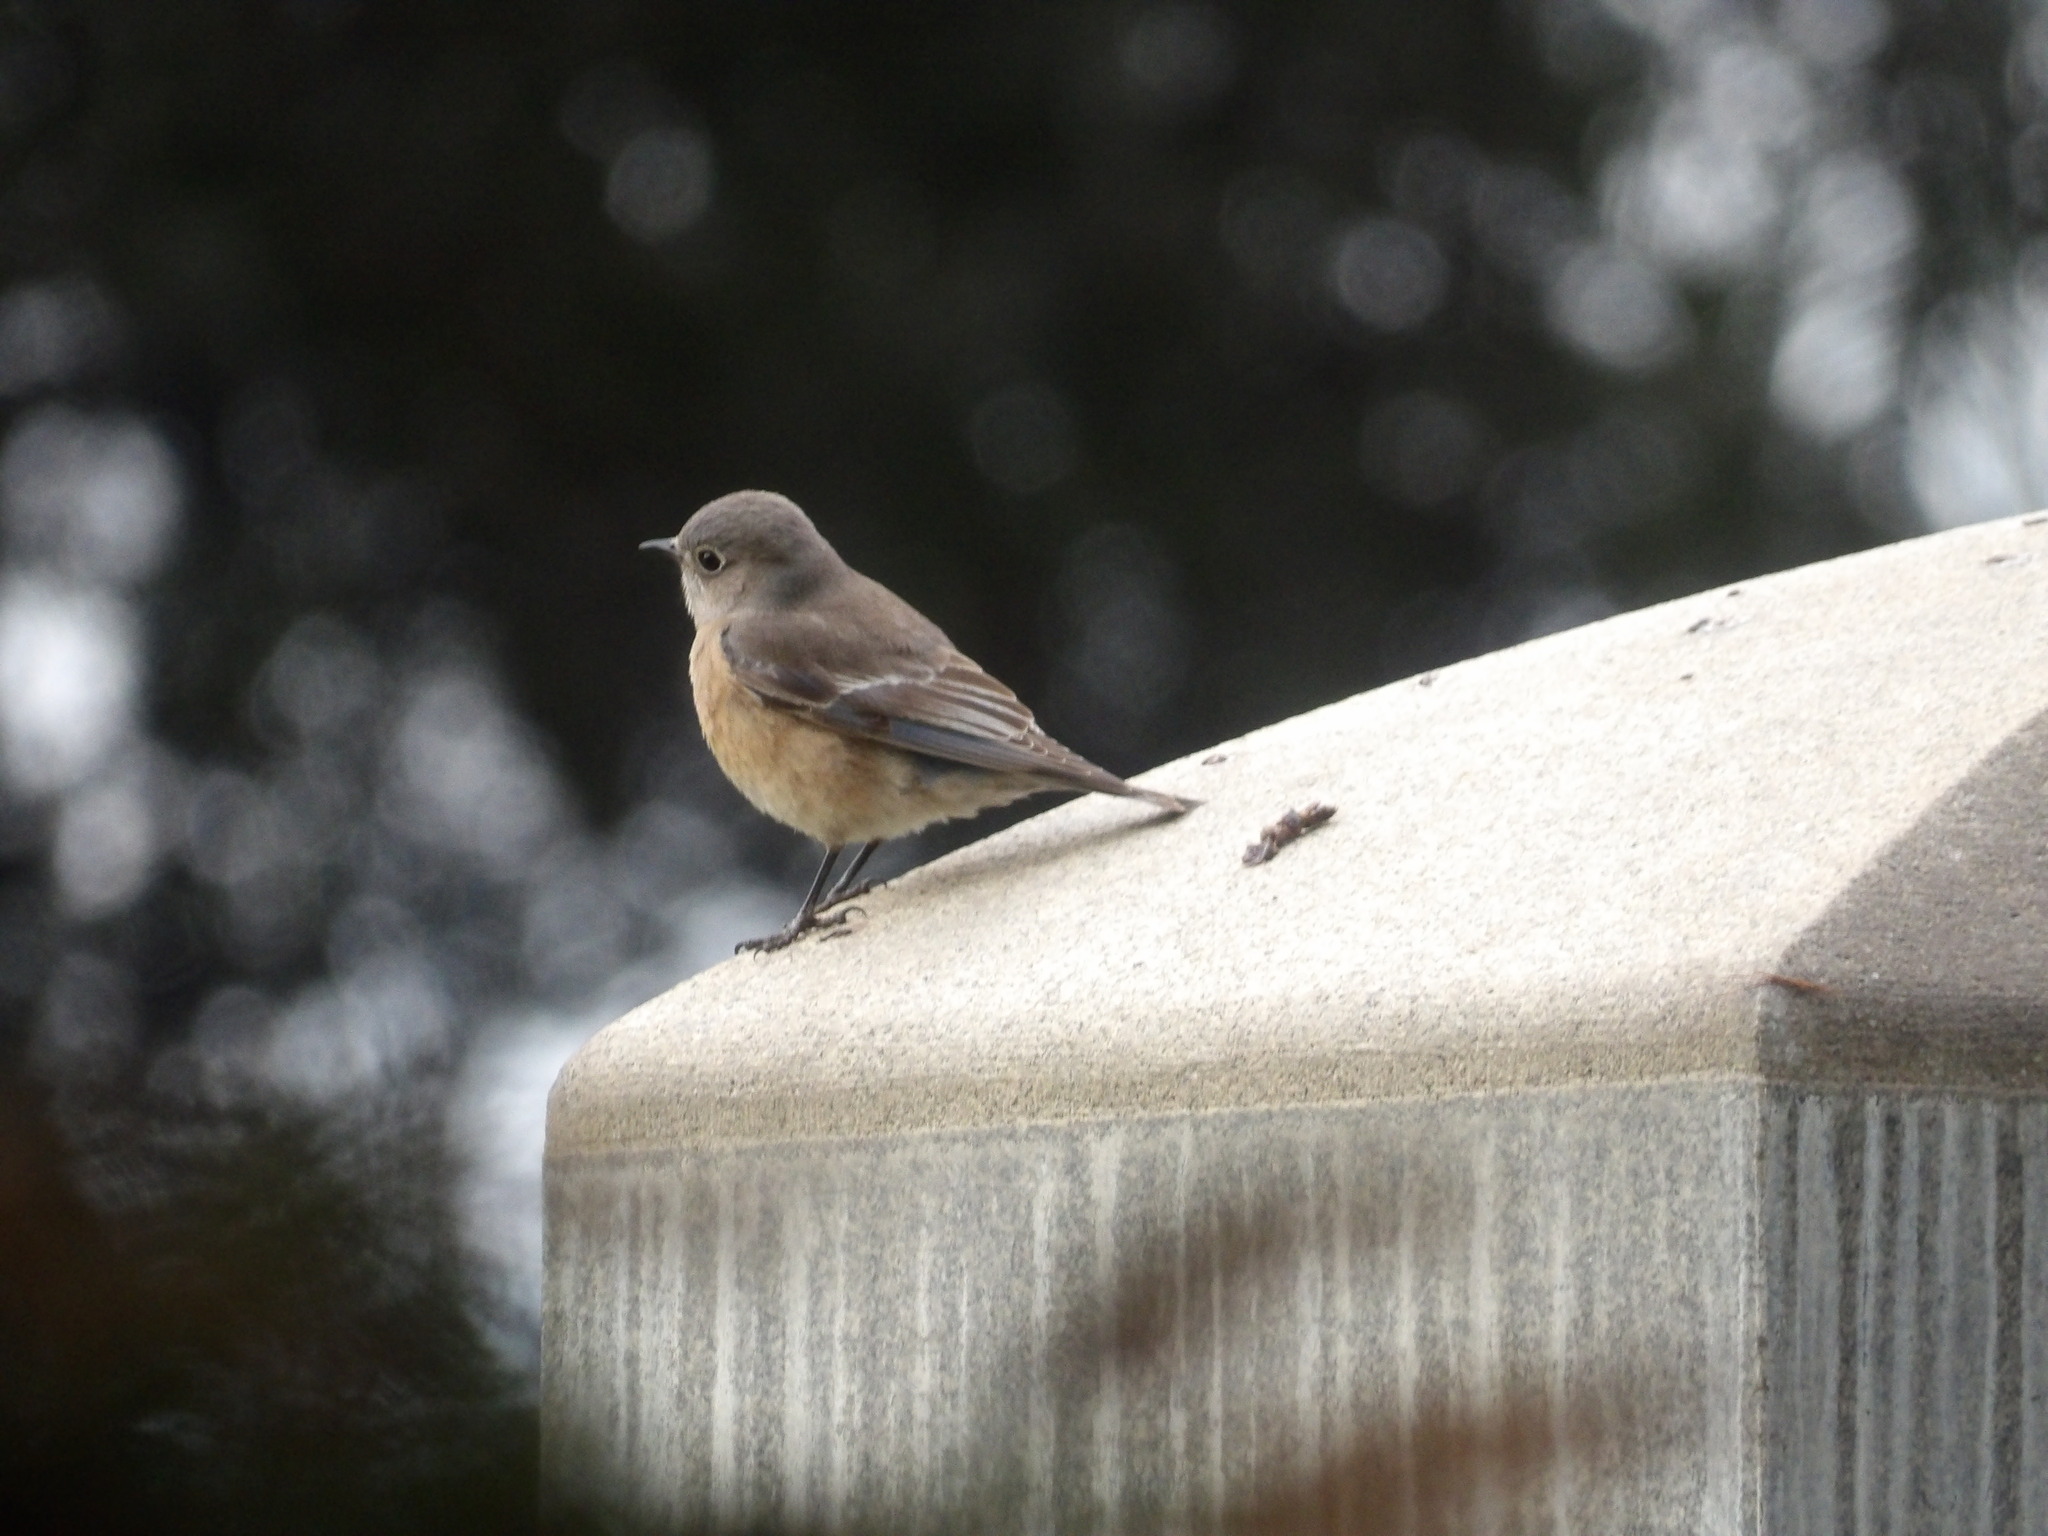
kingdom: Animalia
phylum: Chordata
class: Aves
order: Passeriformes
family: Turdidae
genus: Sialia
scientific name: Sialia mexicana
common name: Western bluebird
